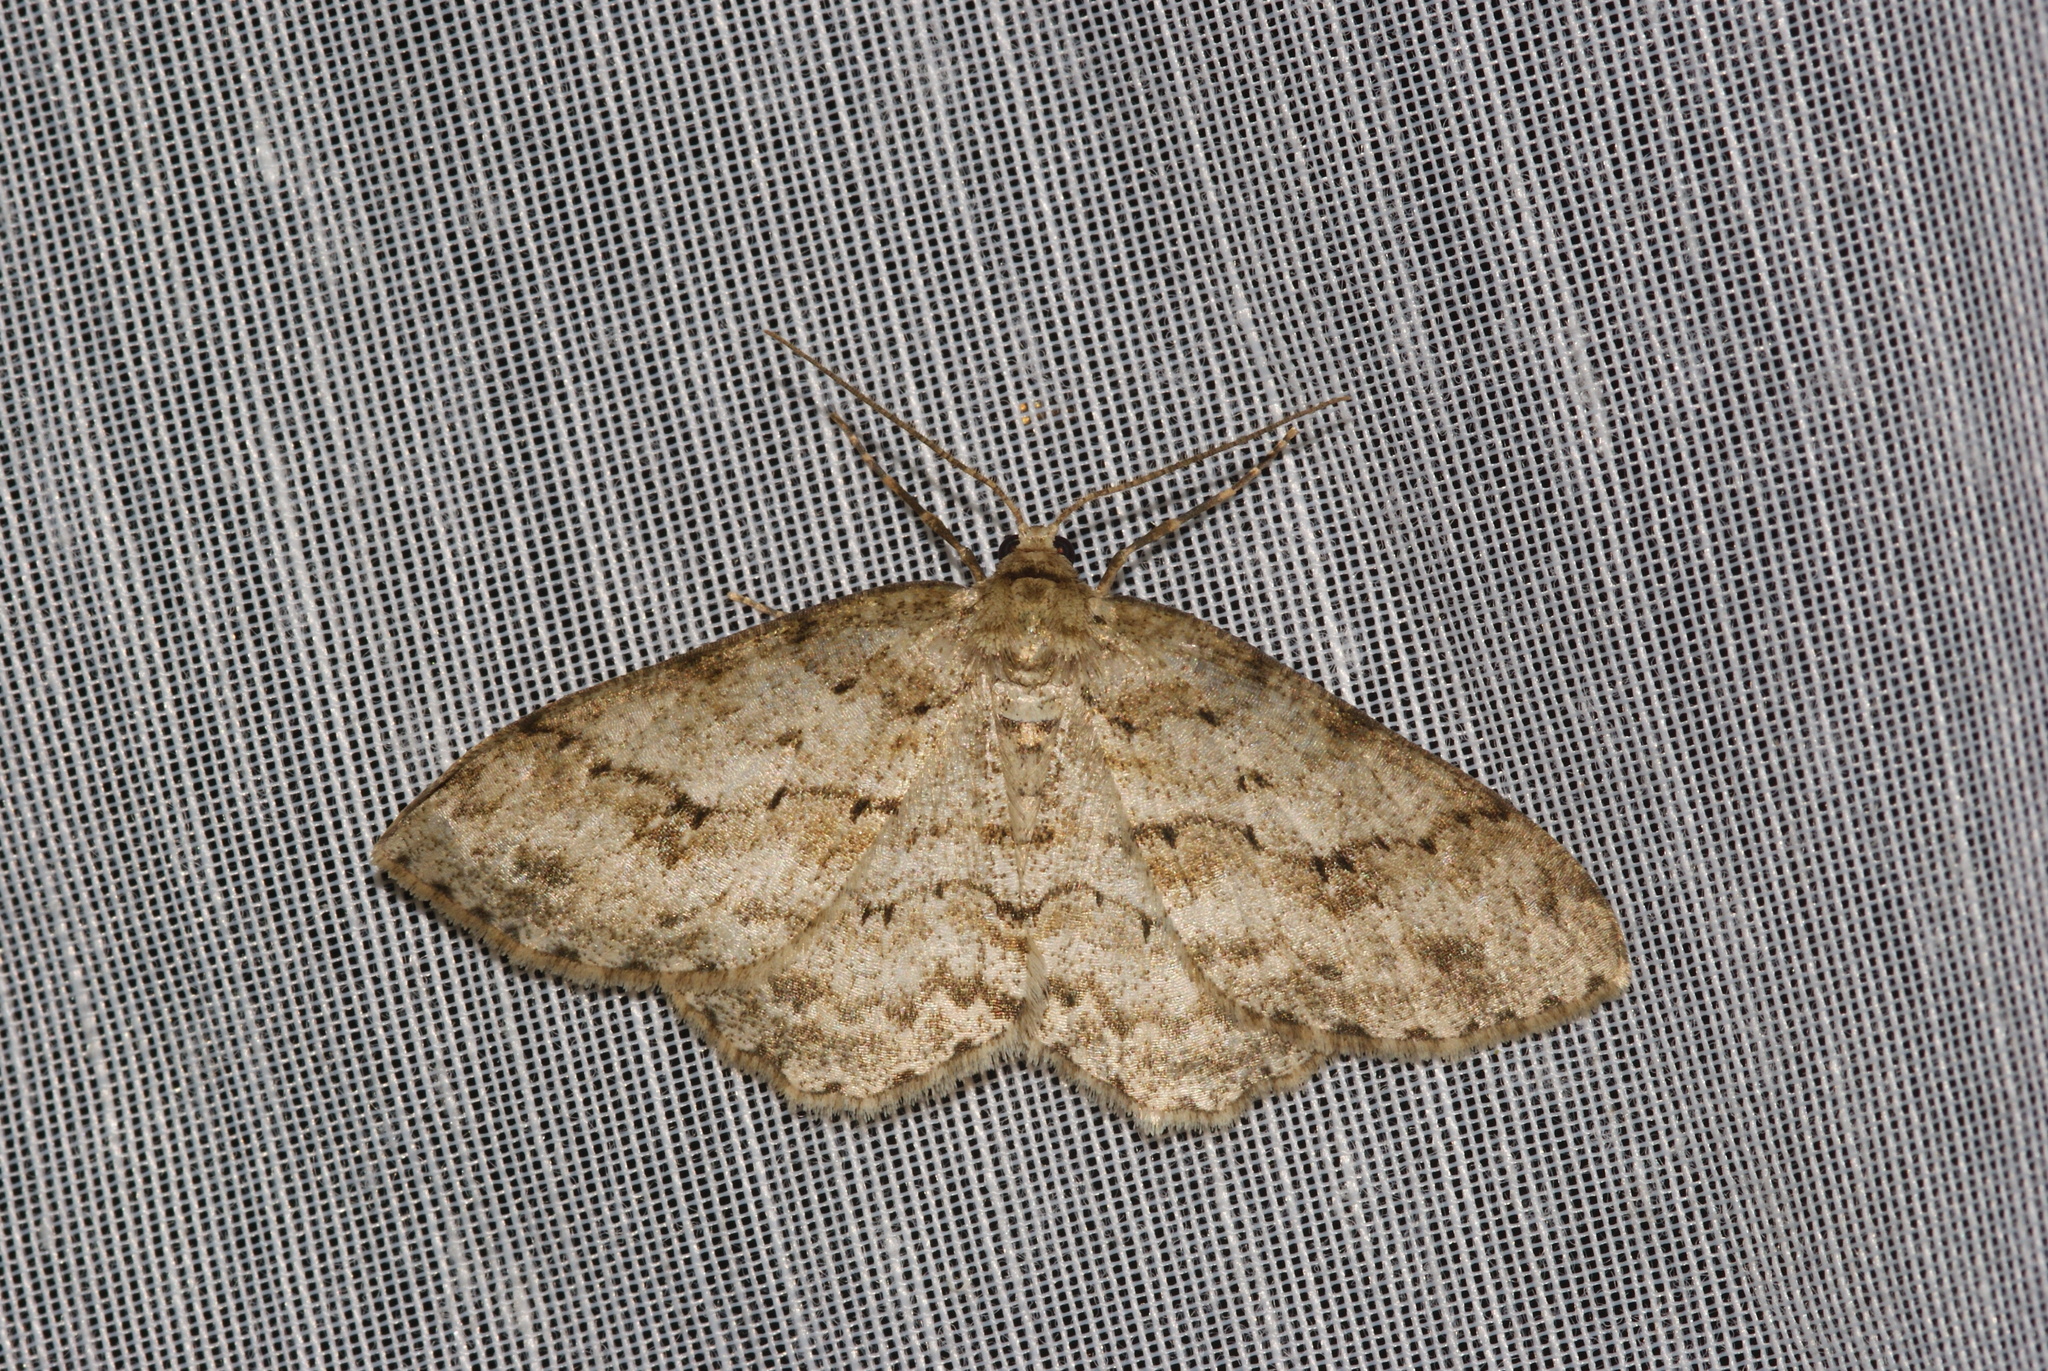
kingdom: Animalia
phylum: Arthropoda
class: Insecta
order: Lepidoptera
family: Geometridae
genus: Ectropis
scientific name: Ectropis crepuscularia
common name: Engrailed
